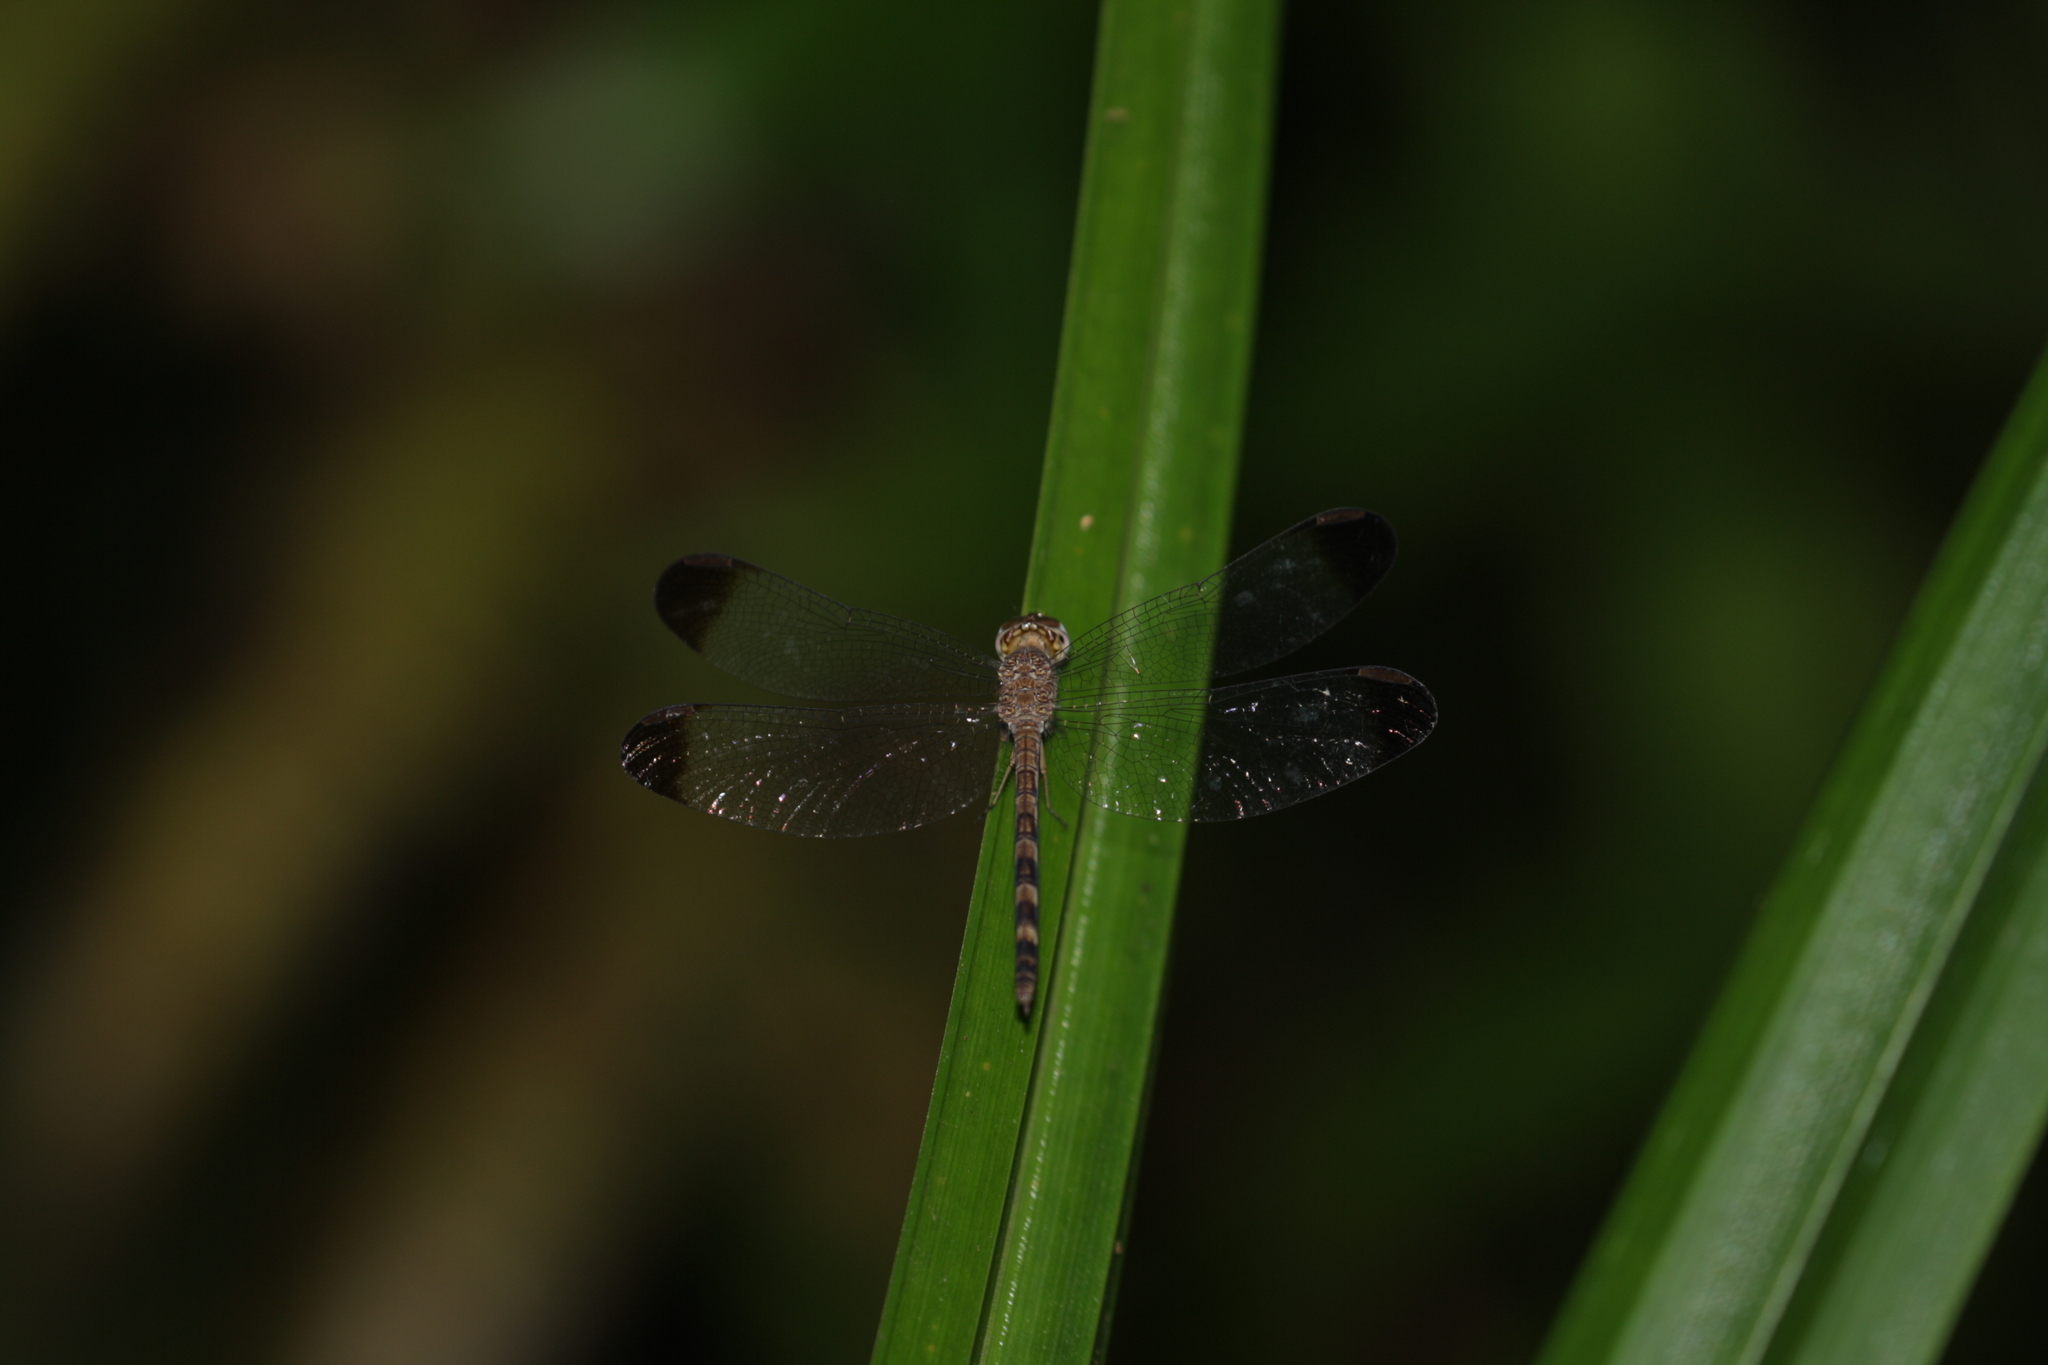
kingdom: Animalia
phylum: Arthropoda
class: Insecta
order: Odonata
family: Libellulidae
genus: Uracis
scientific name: Uracis imbuta
